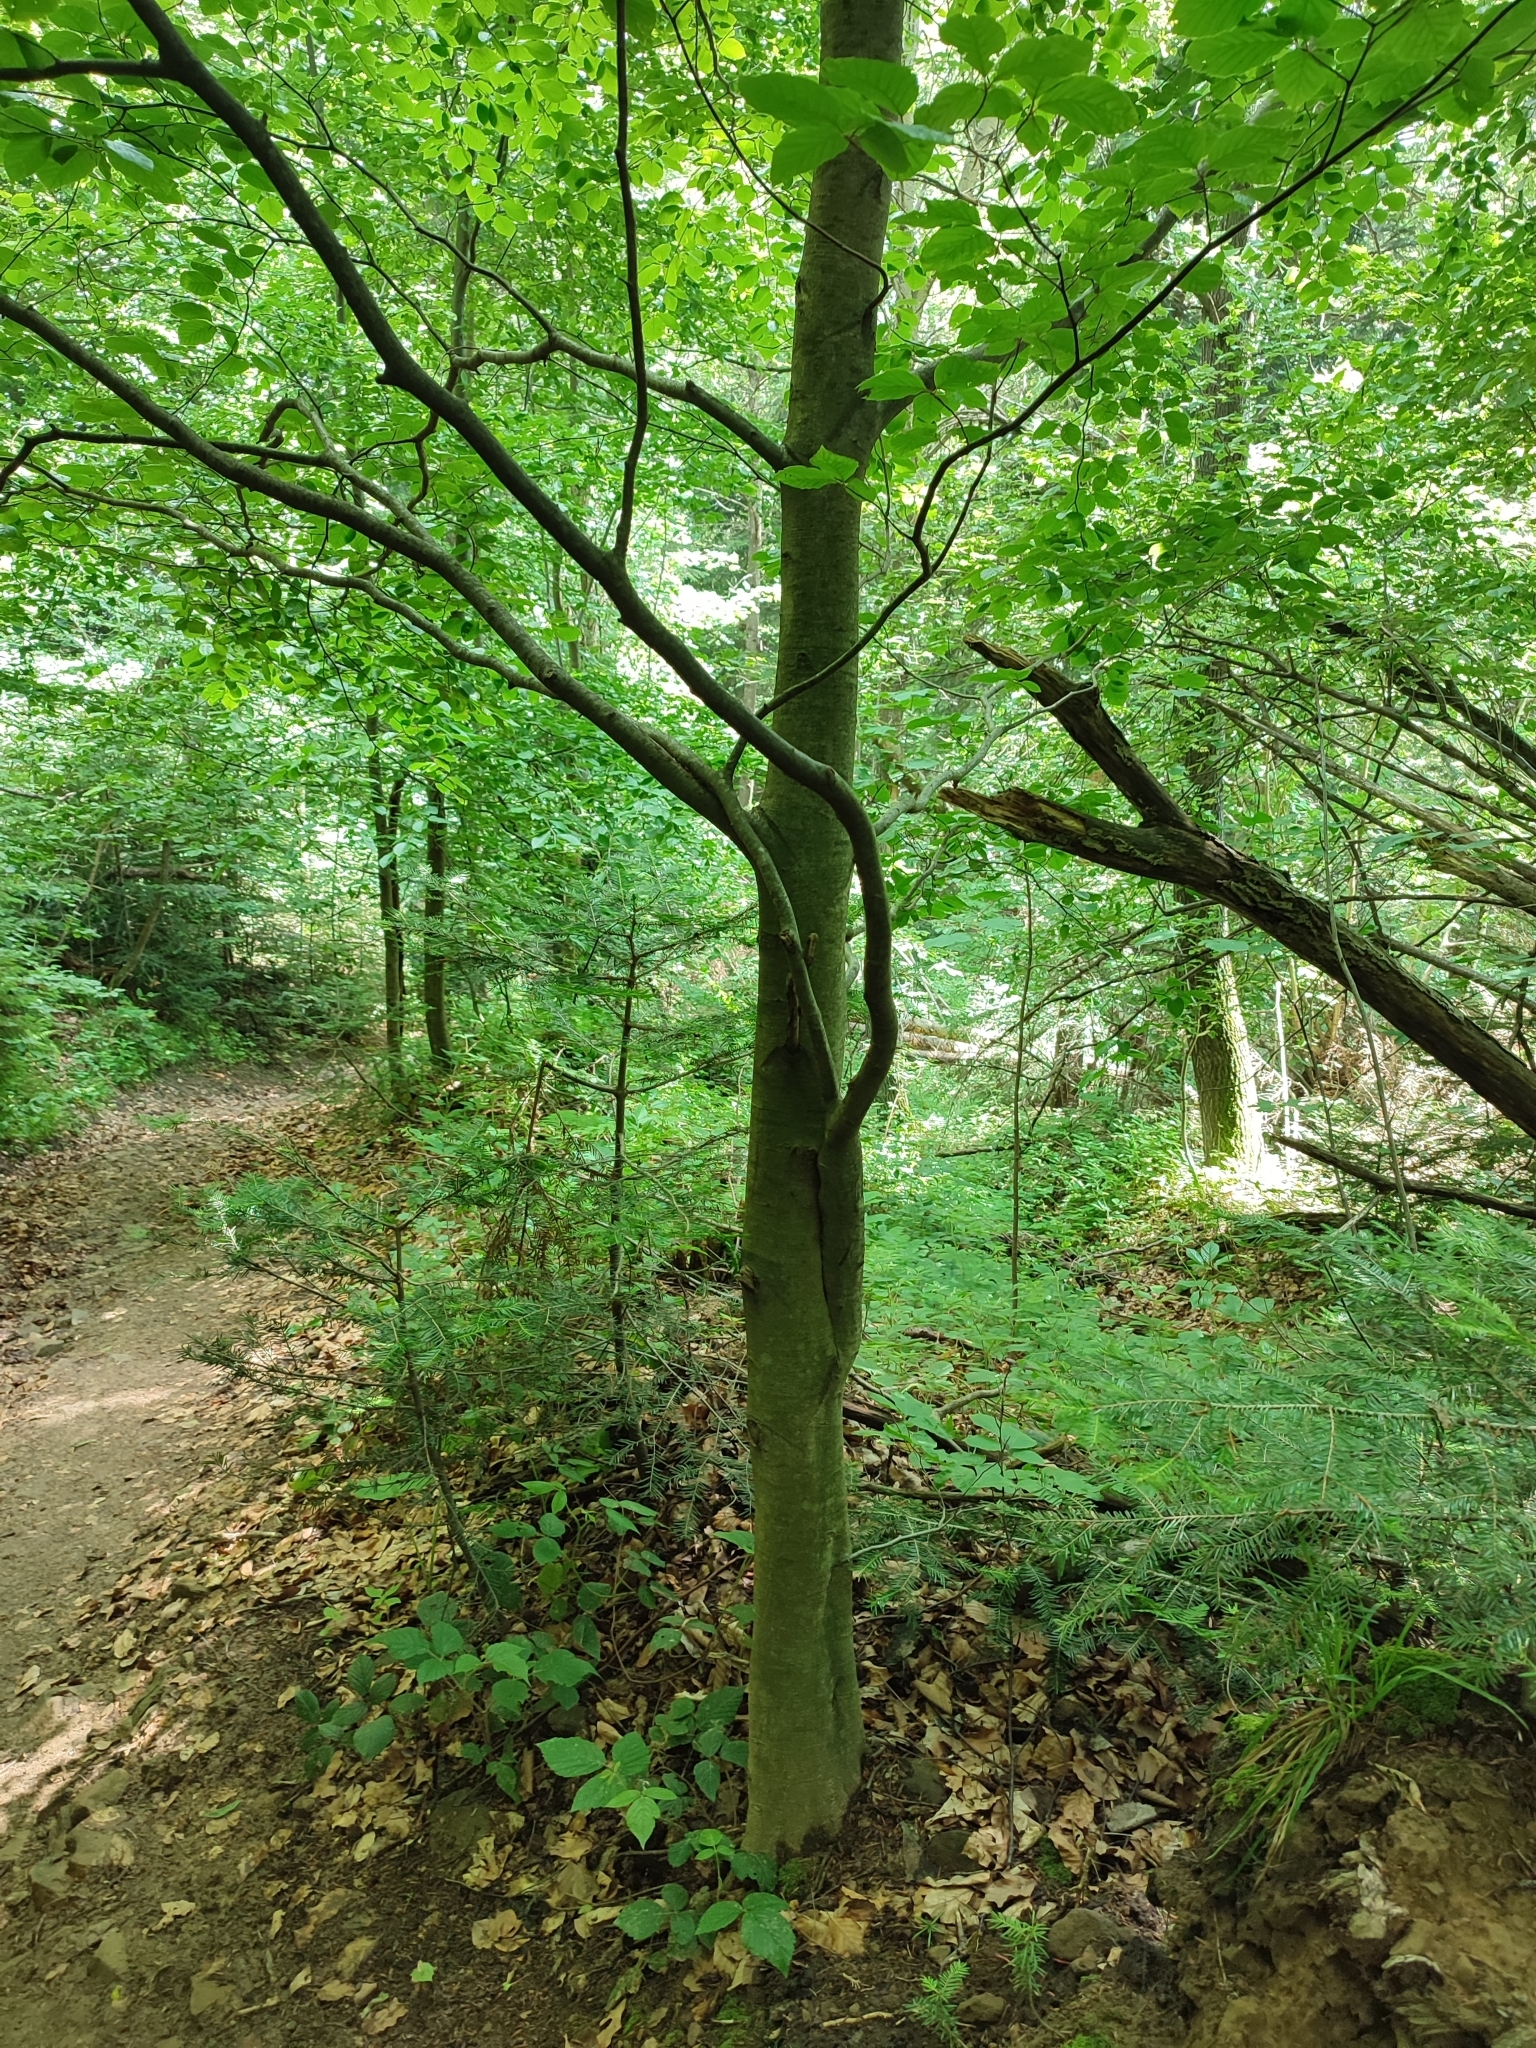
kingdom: Plantae
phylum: Tracheophyta
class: Magnoliopsida
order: Fagales
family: Fagaceae
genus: Fagus
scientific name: Fagus sylvatica
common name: Beech
